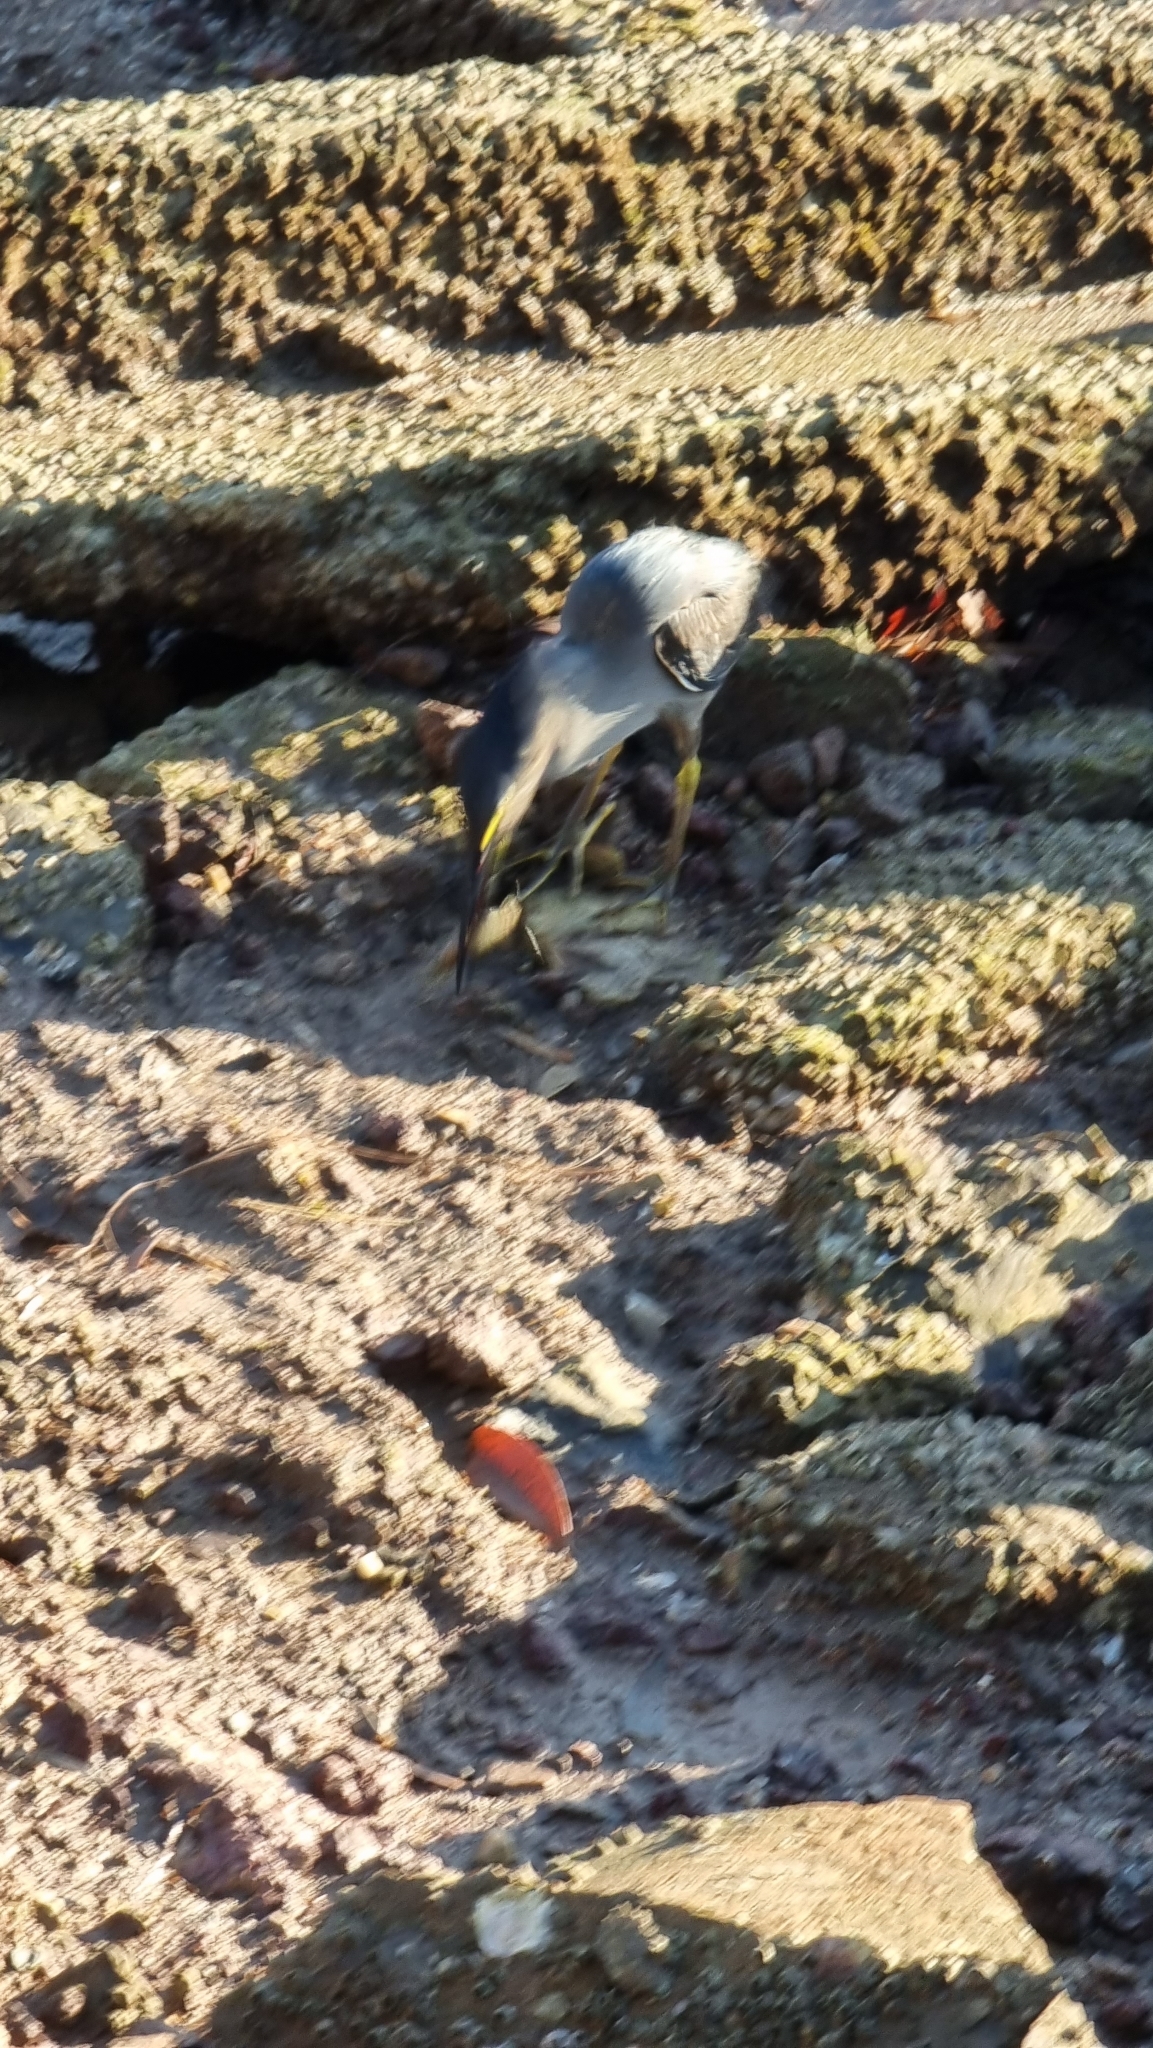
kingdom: Animalia
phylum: Chordata
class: Aves
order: Pelecaniformes
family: Ardeidae
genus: Butorides
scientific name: Butorides striata
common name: Striated heron
